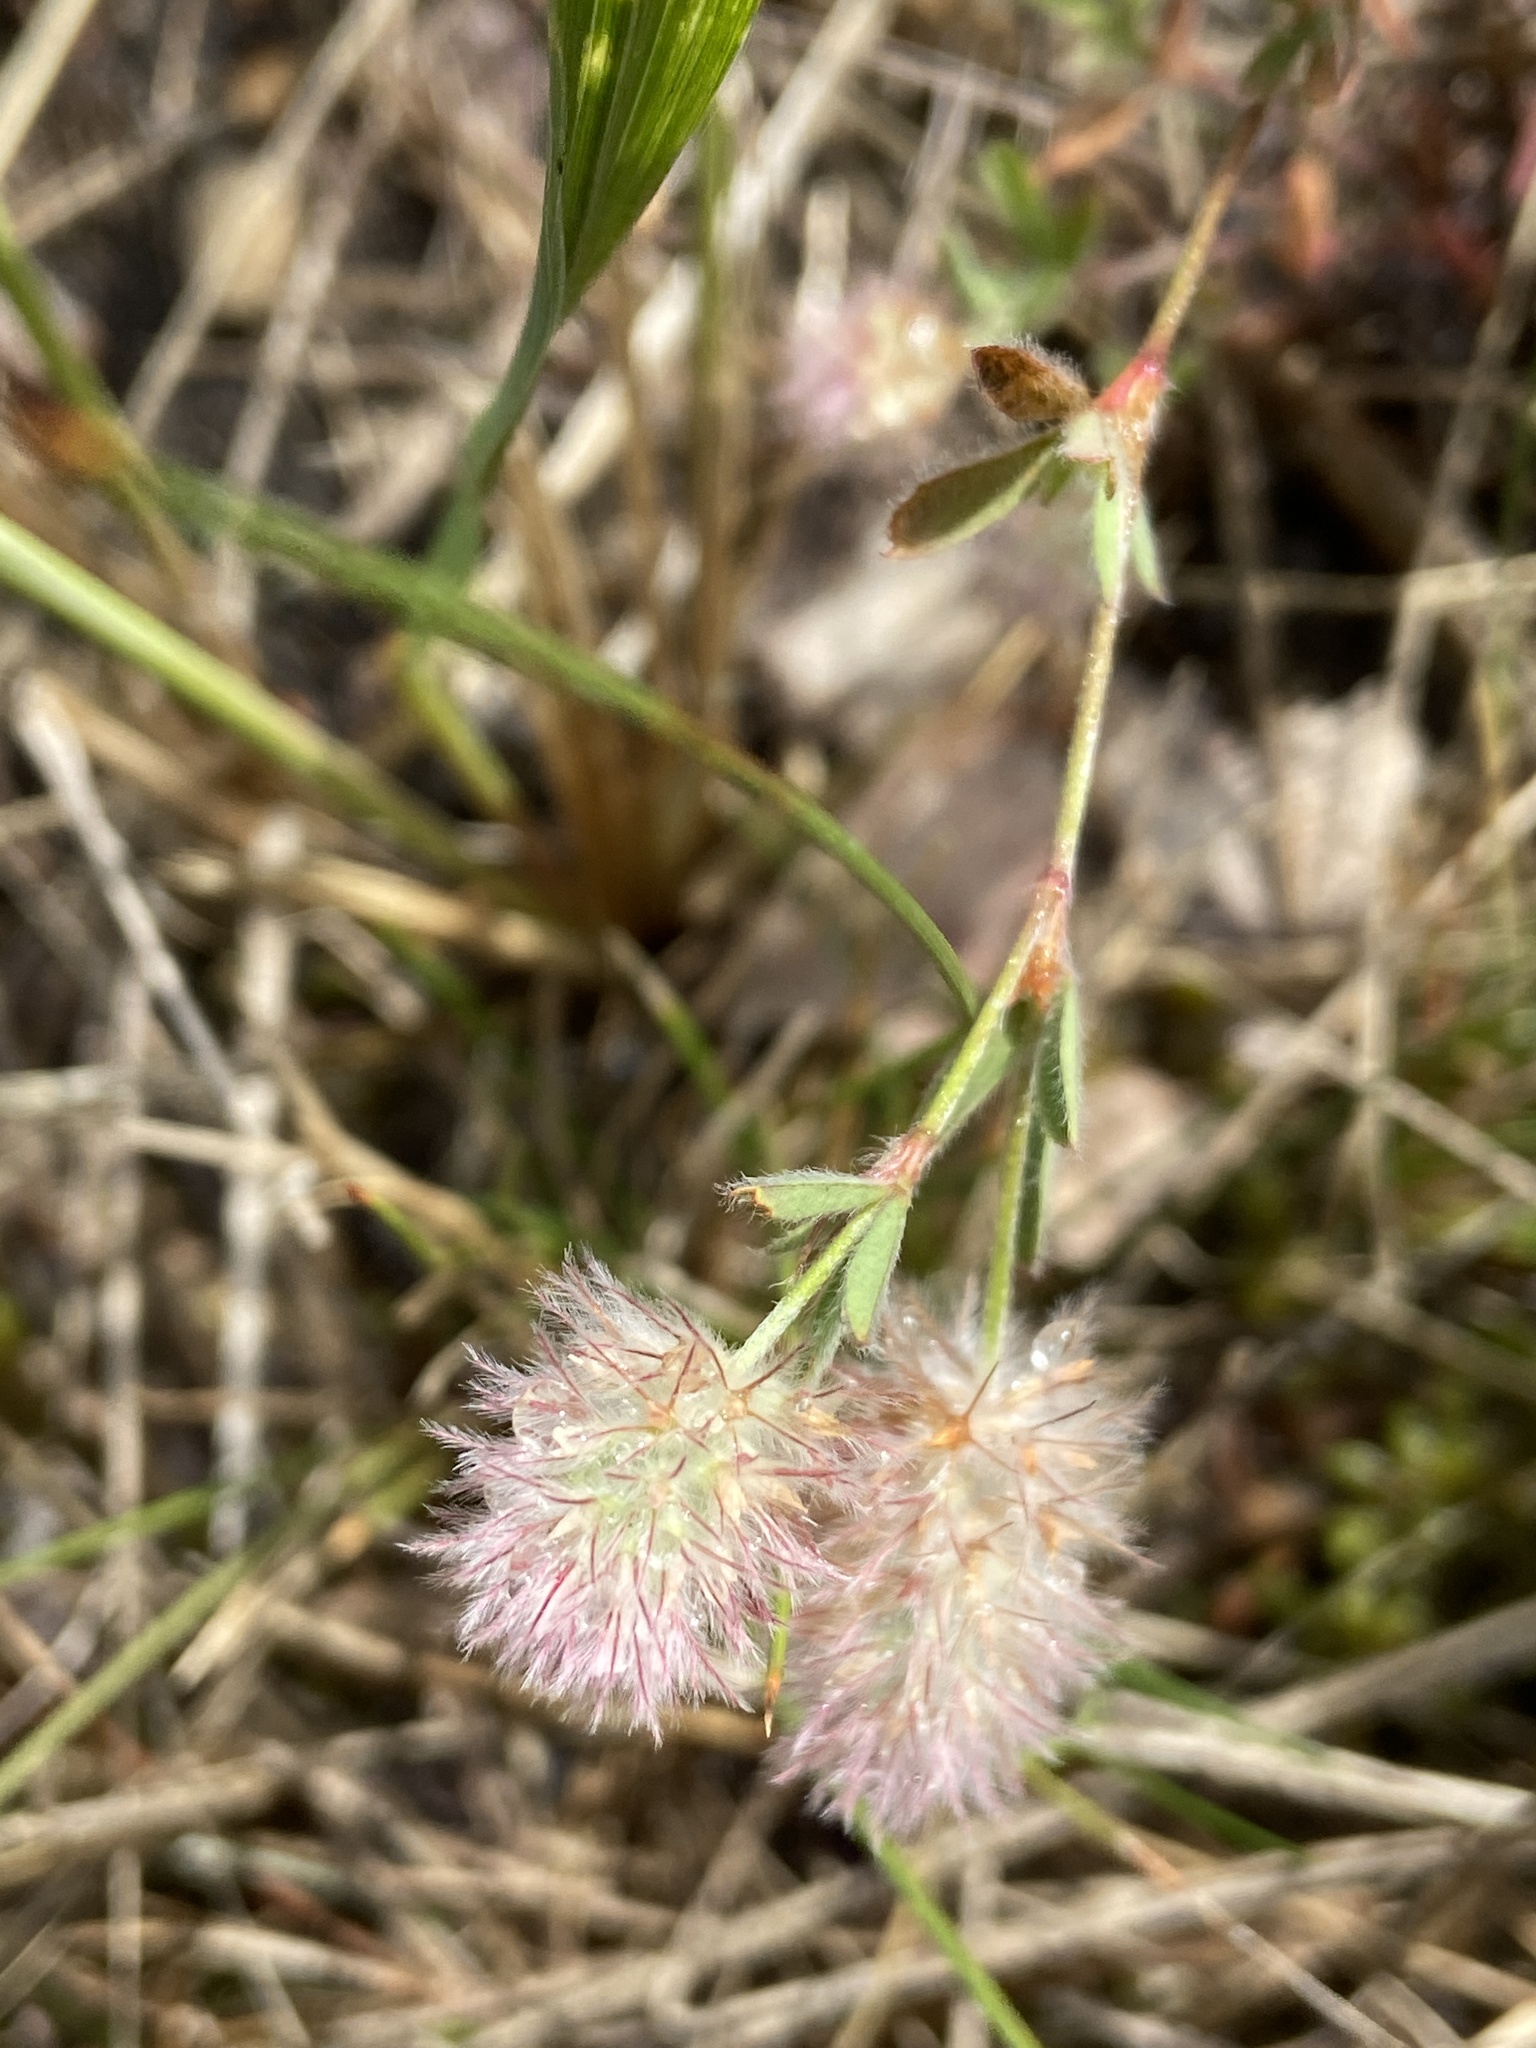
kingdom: Plantae
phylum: Tracheophyta
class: Magnoliopsida
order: Fabales
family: Fabaceae
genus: Trifolium
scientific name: Trifolium arvense
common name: Hare's-foot clover
